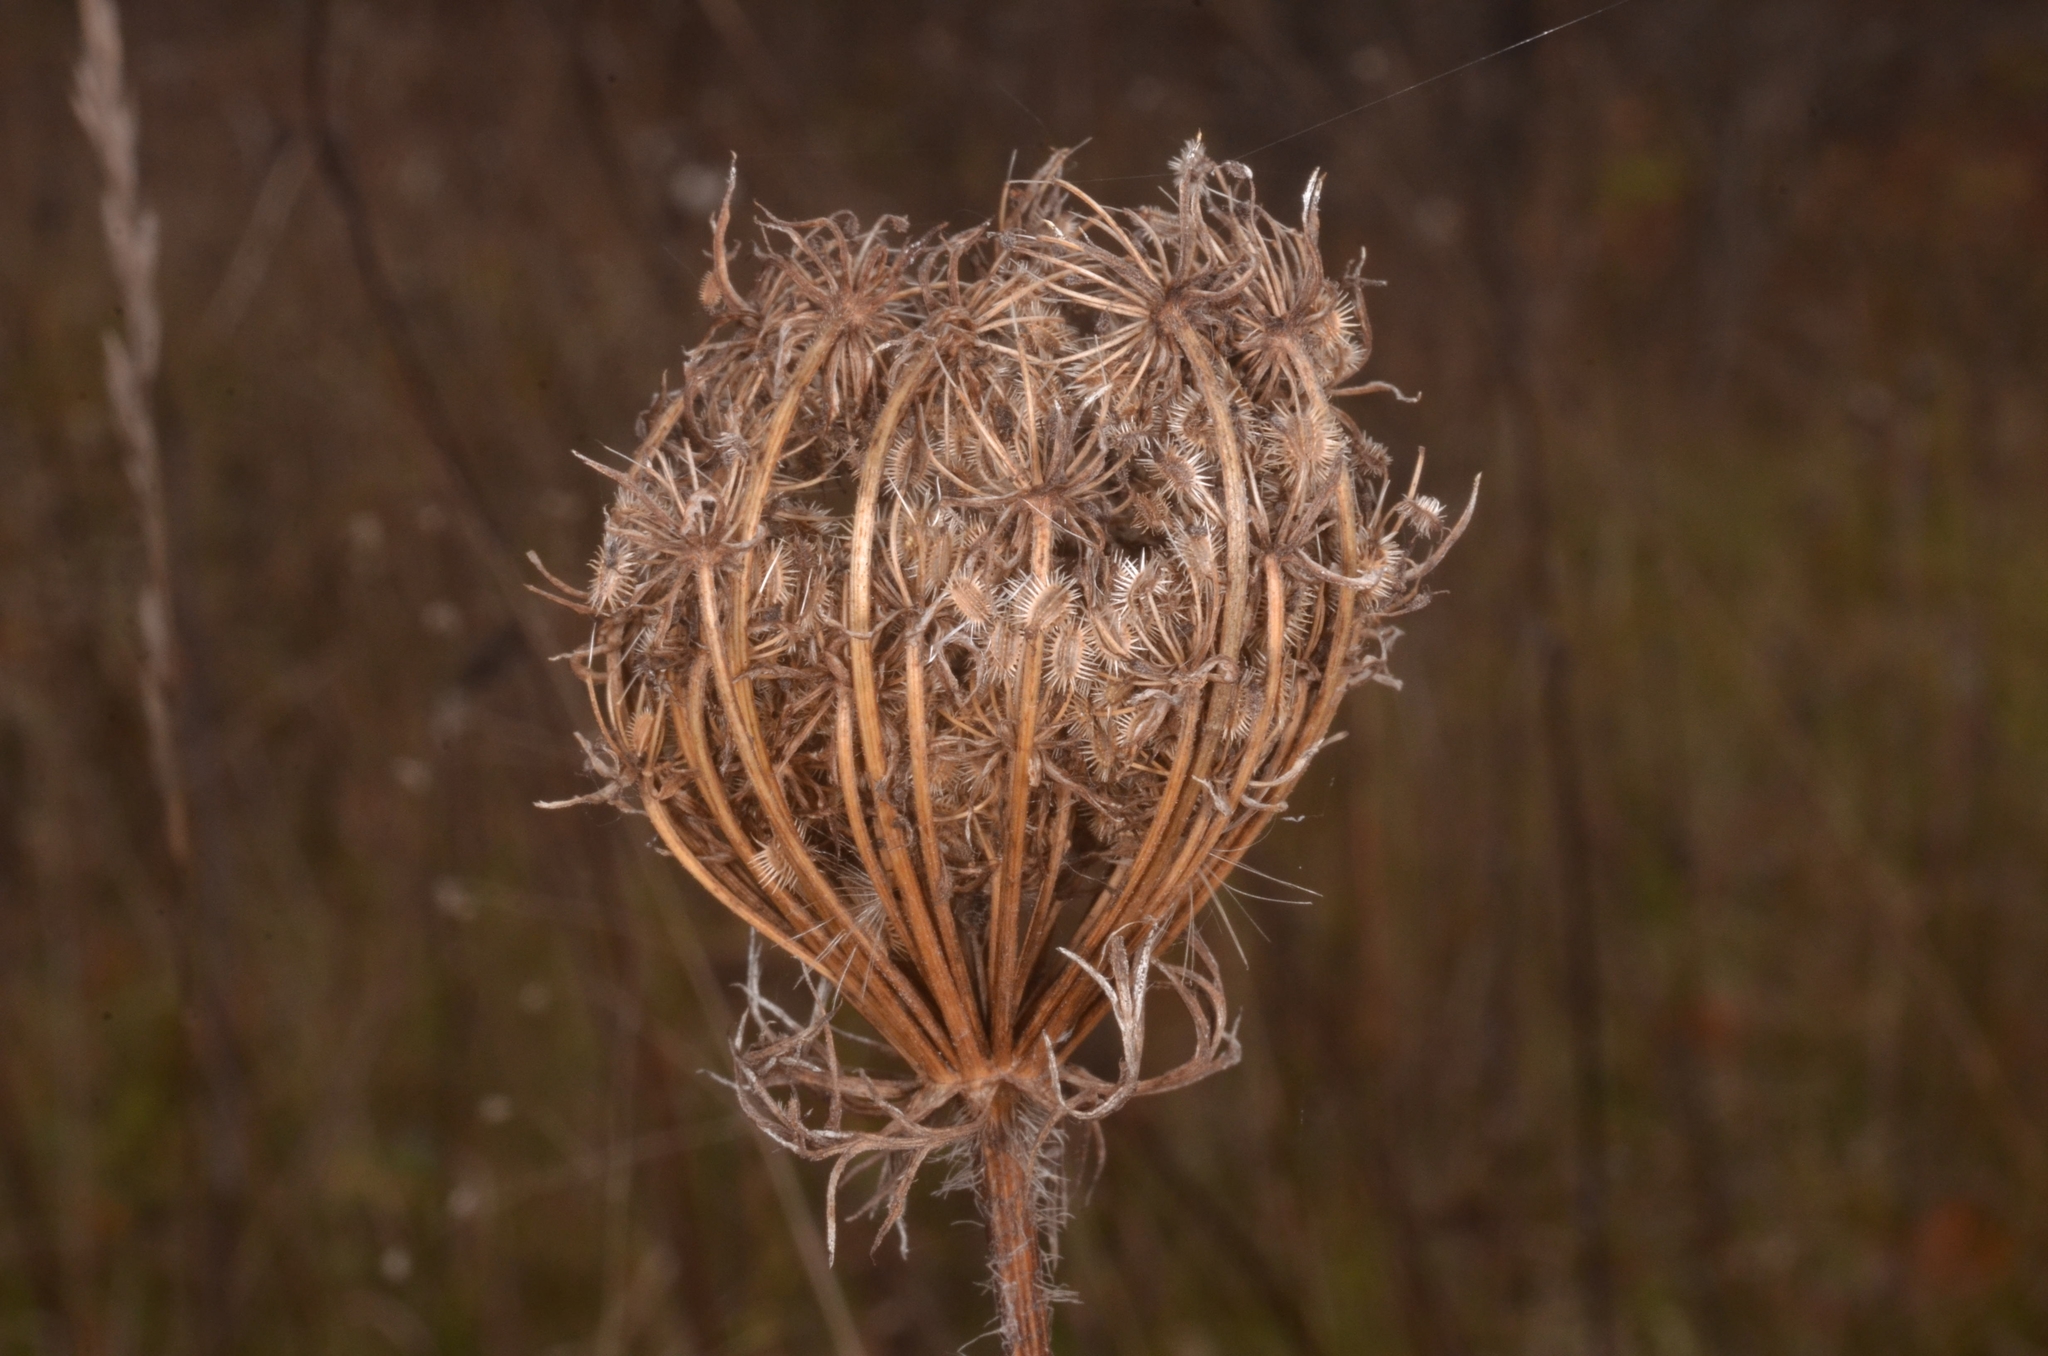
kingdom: Plantae
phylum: Tracheophyta
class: Magnoliopsida
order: Apiales
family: Apiaceae
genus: Daucus
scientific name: Daucus carota
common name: Wild carrot
